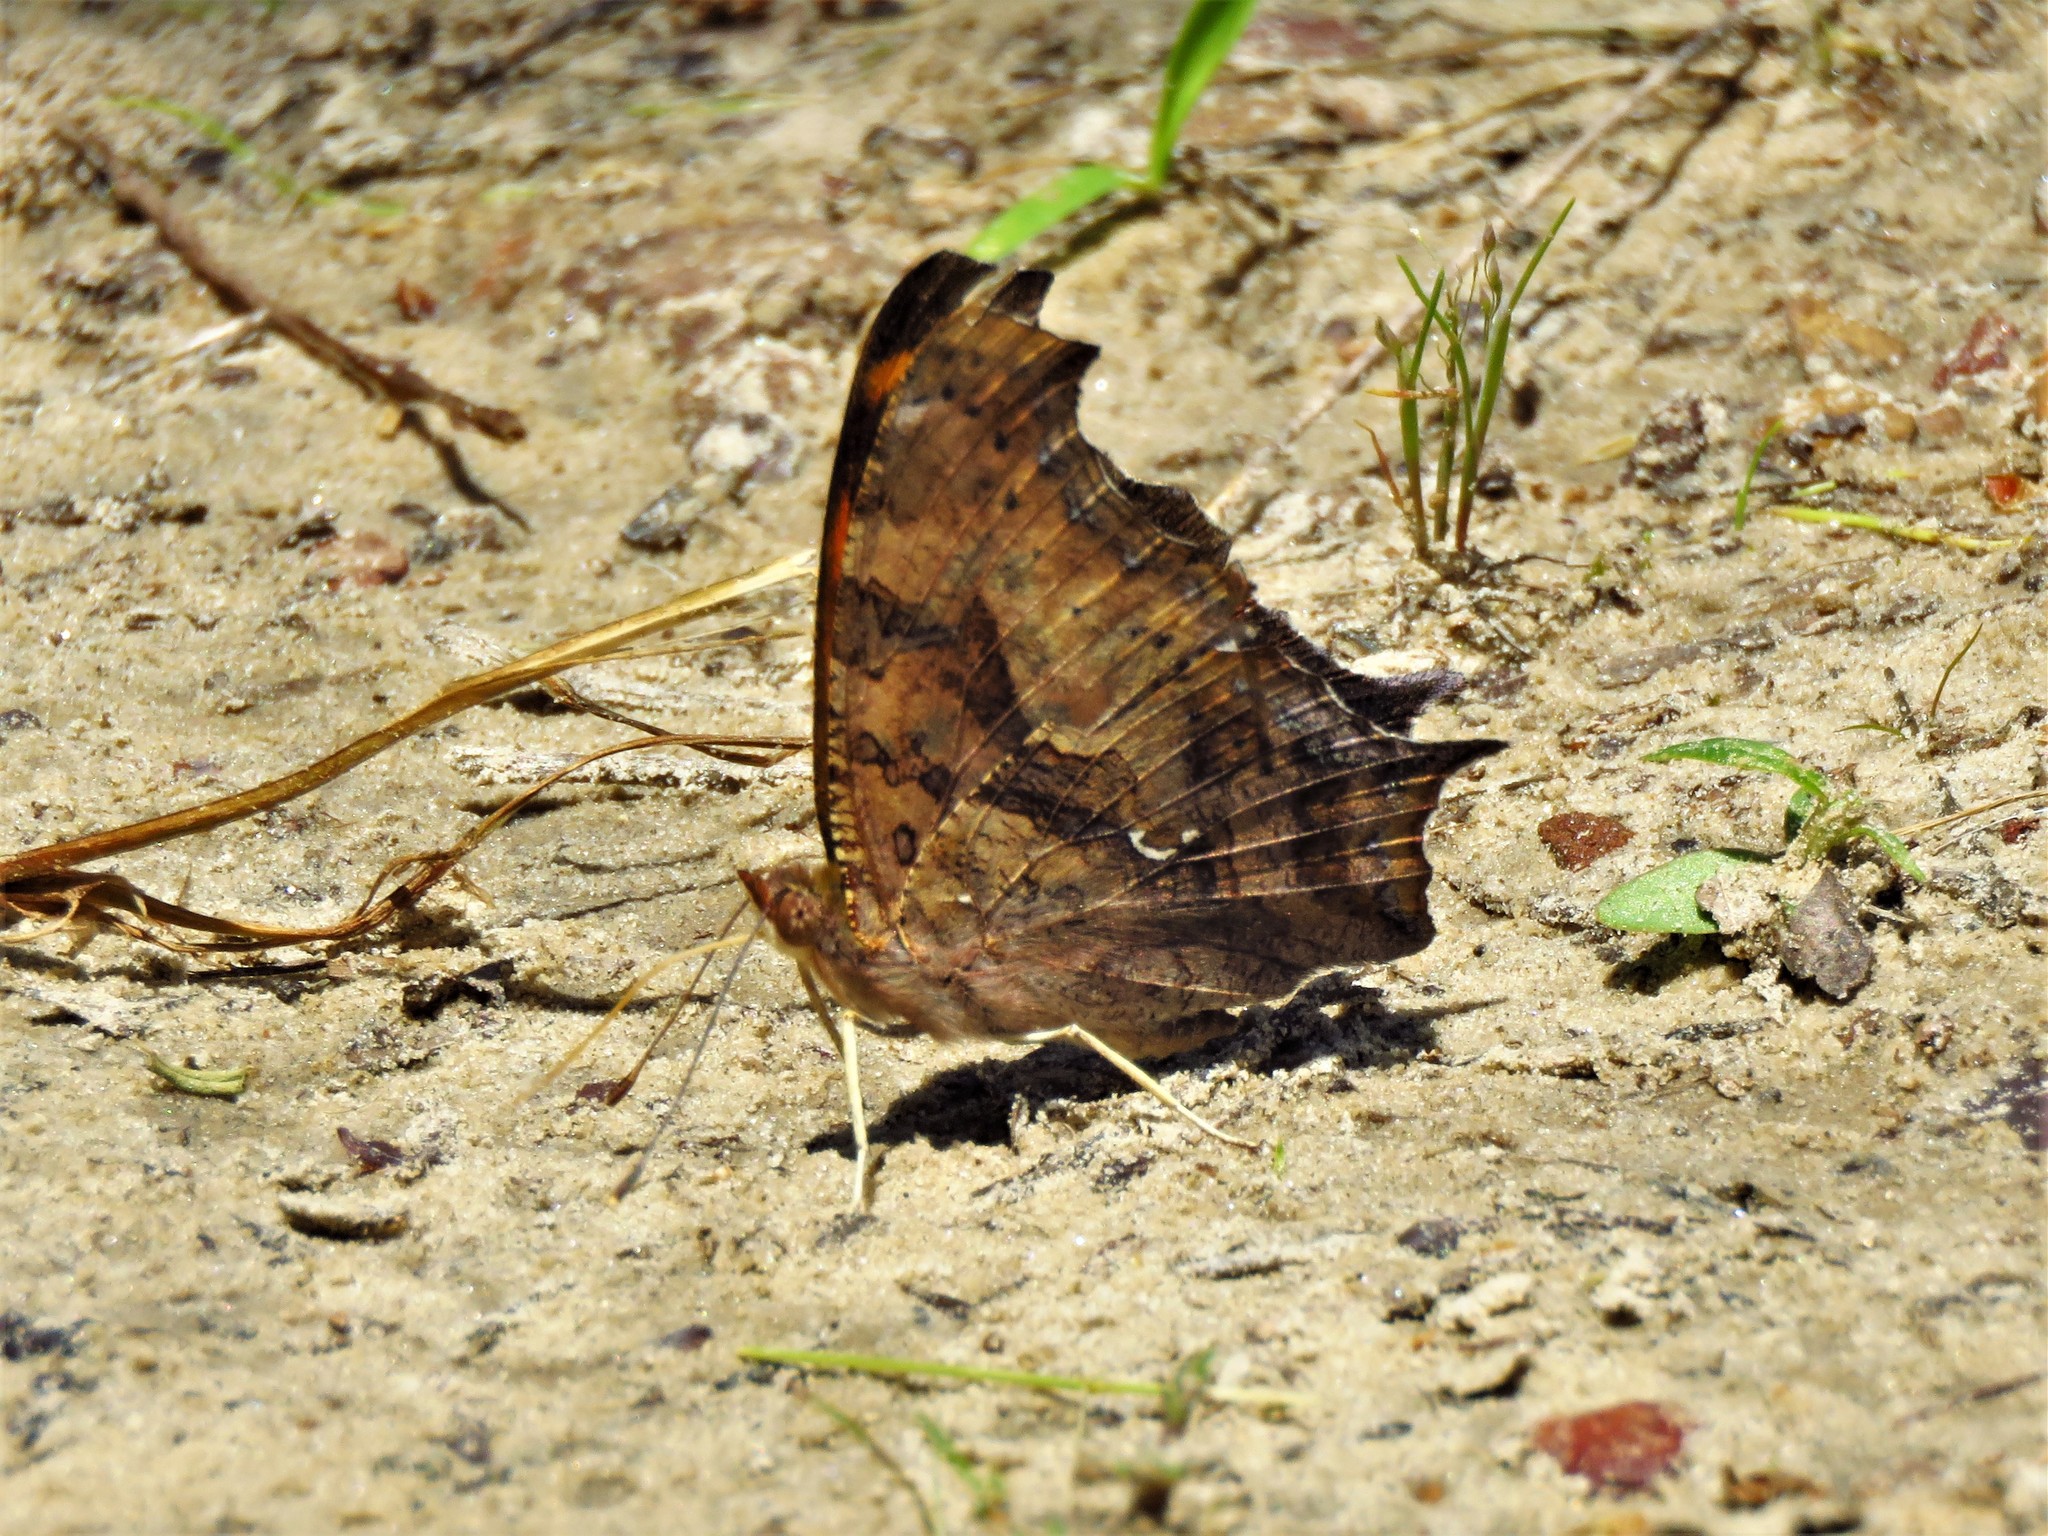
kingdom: Animalia
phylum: Arthropoda
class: Insecta
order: Lepidoptera
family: Nymphalidae
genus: Polygonia
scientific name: Polygonia interrogationis
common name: Question mark
